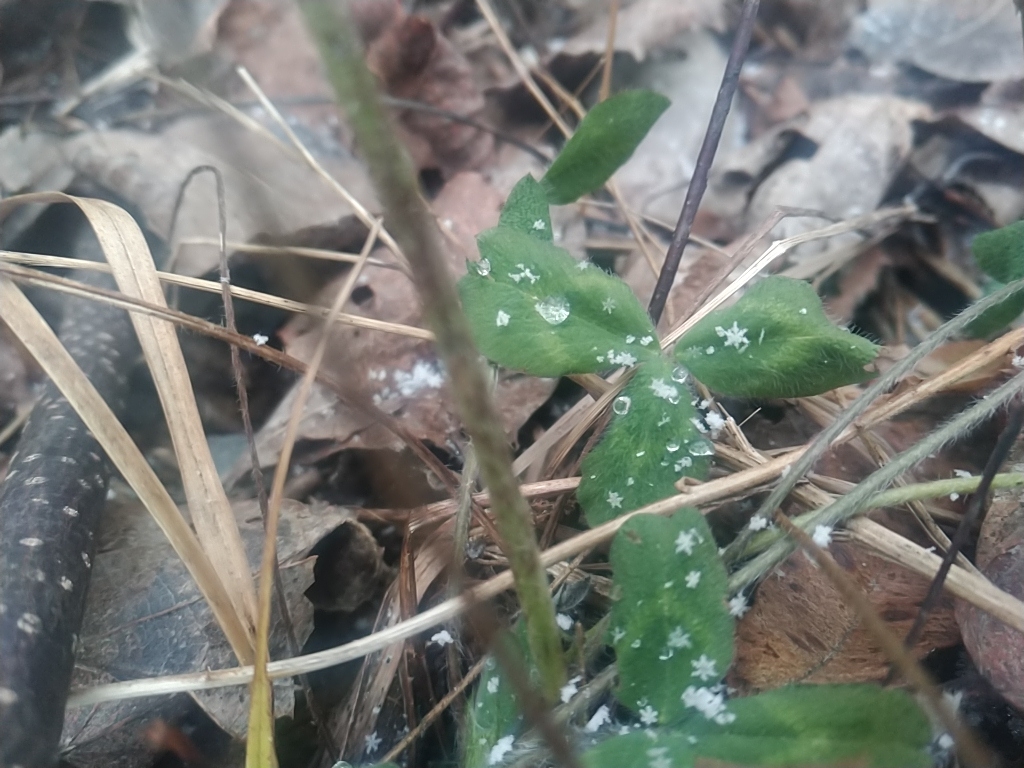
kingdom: Plantae
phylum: Tracheophyta
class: Magnoliopsida
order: Fabales
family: Fabaceae
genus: Trifolium
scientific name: Trifolium pratense
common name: Red clover
